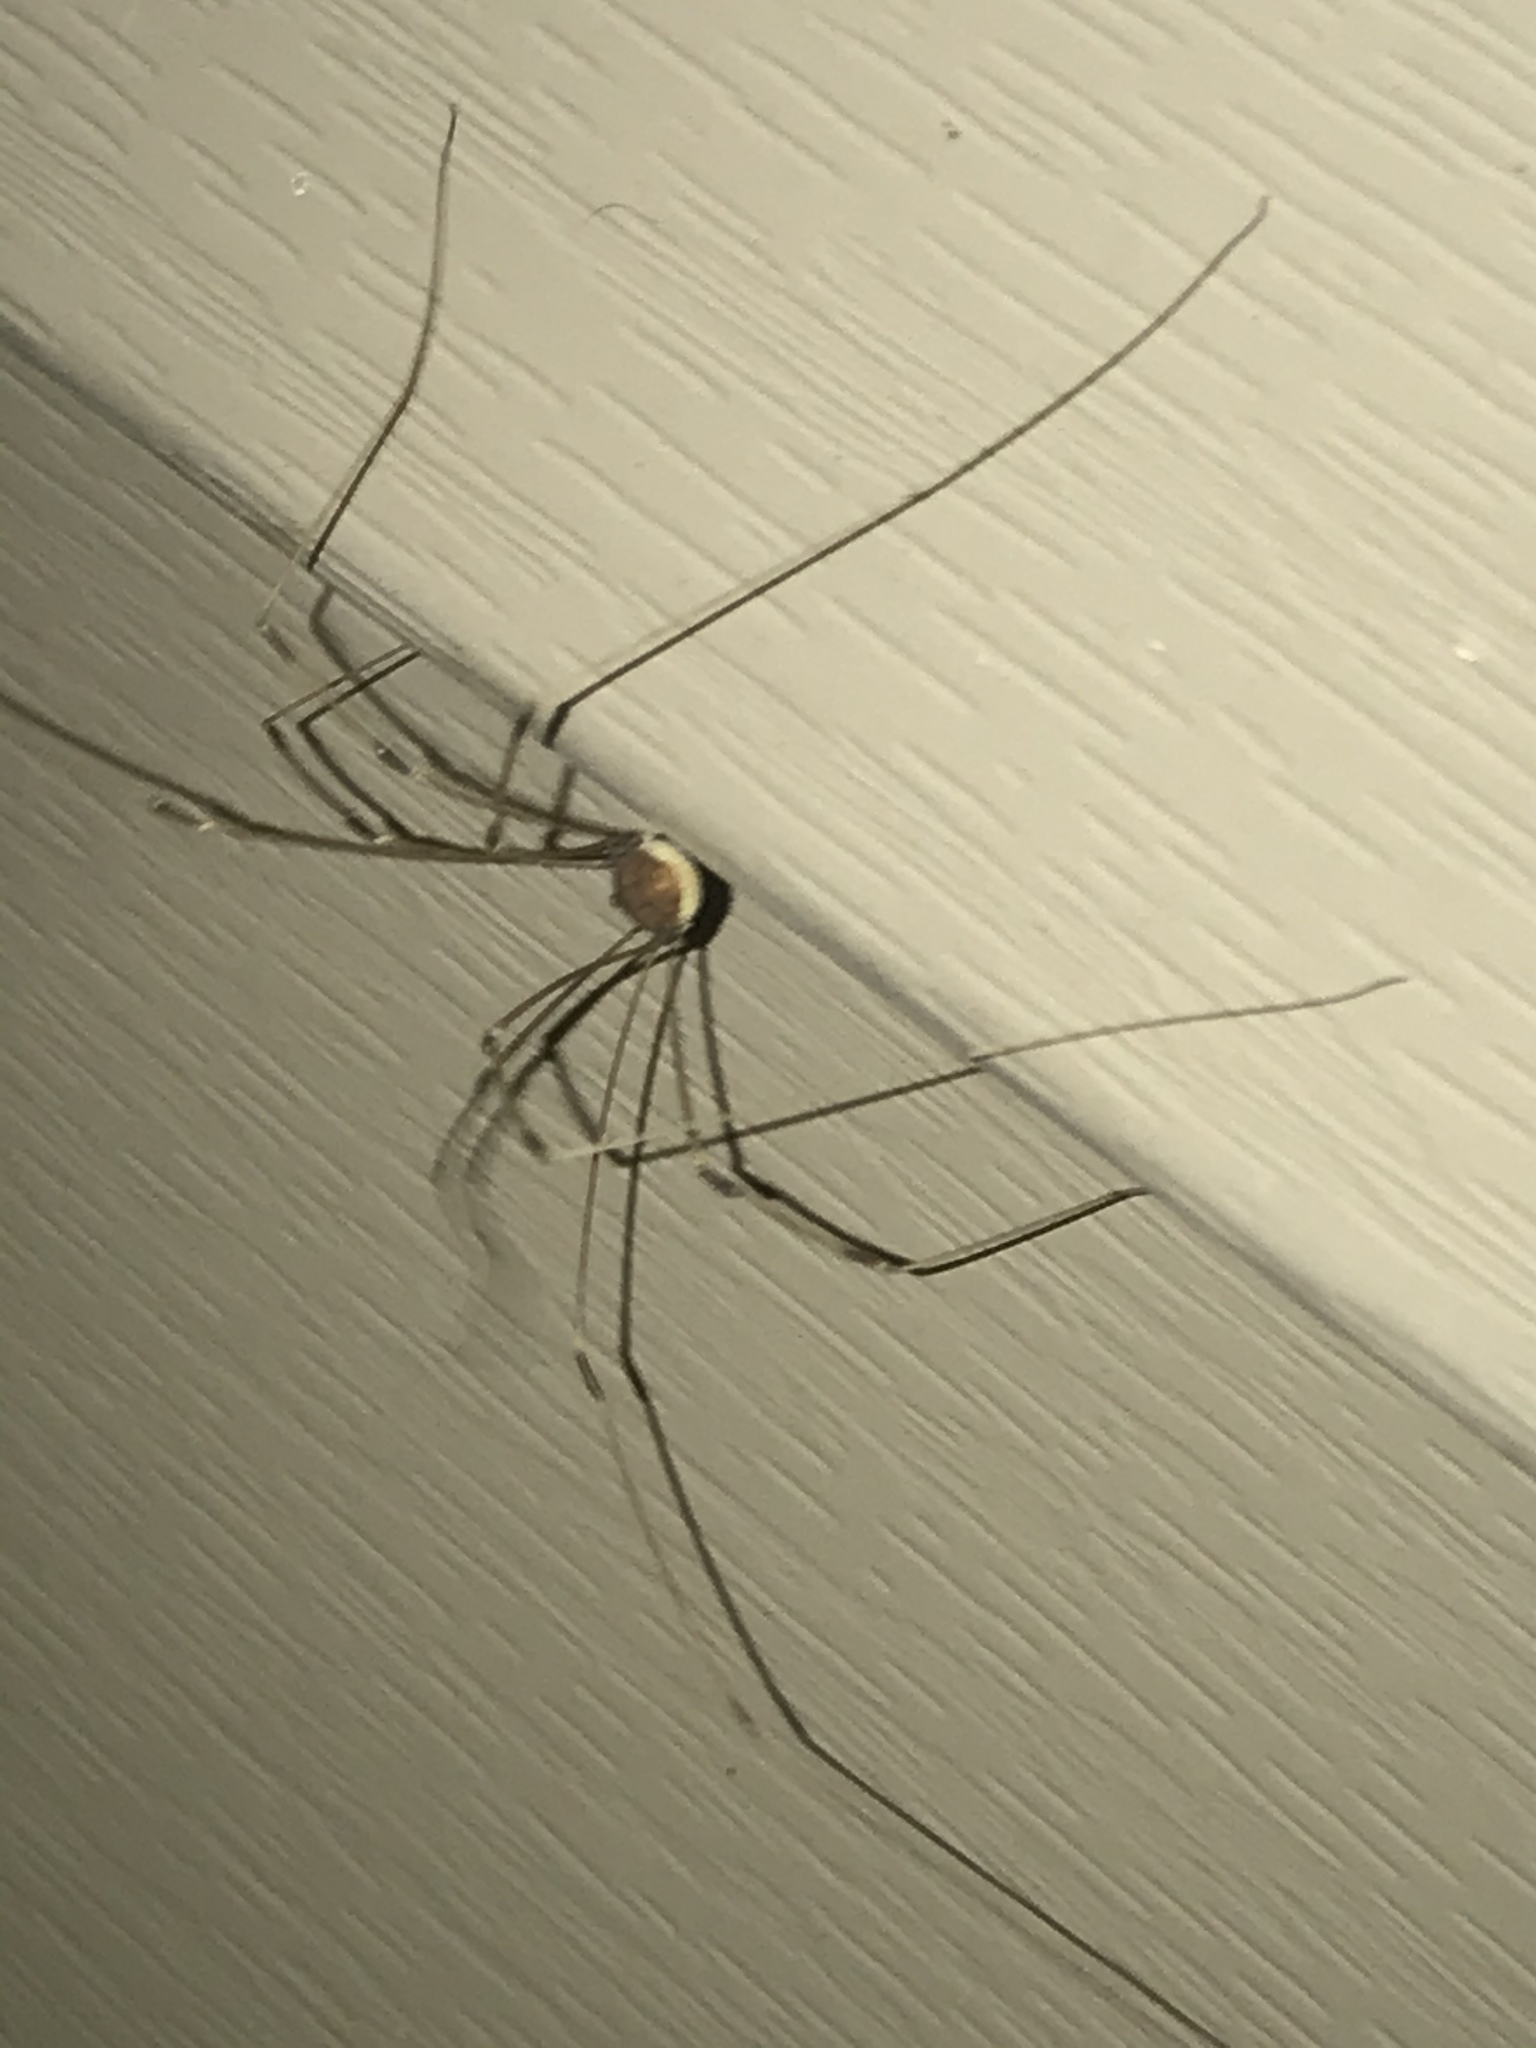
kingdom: Animalia
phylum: Arthropoda
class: Arachnida
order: Opiliones
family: Sclerosomatidae
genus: Leiobunum
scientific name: Leiobunum vittatum
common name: Eastern harvestman
